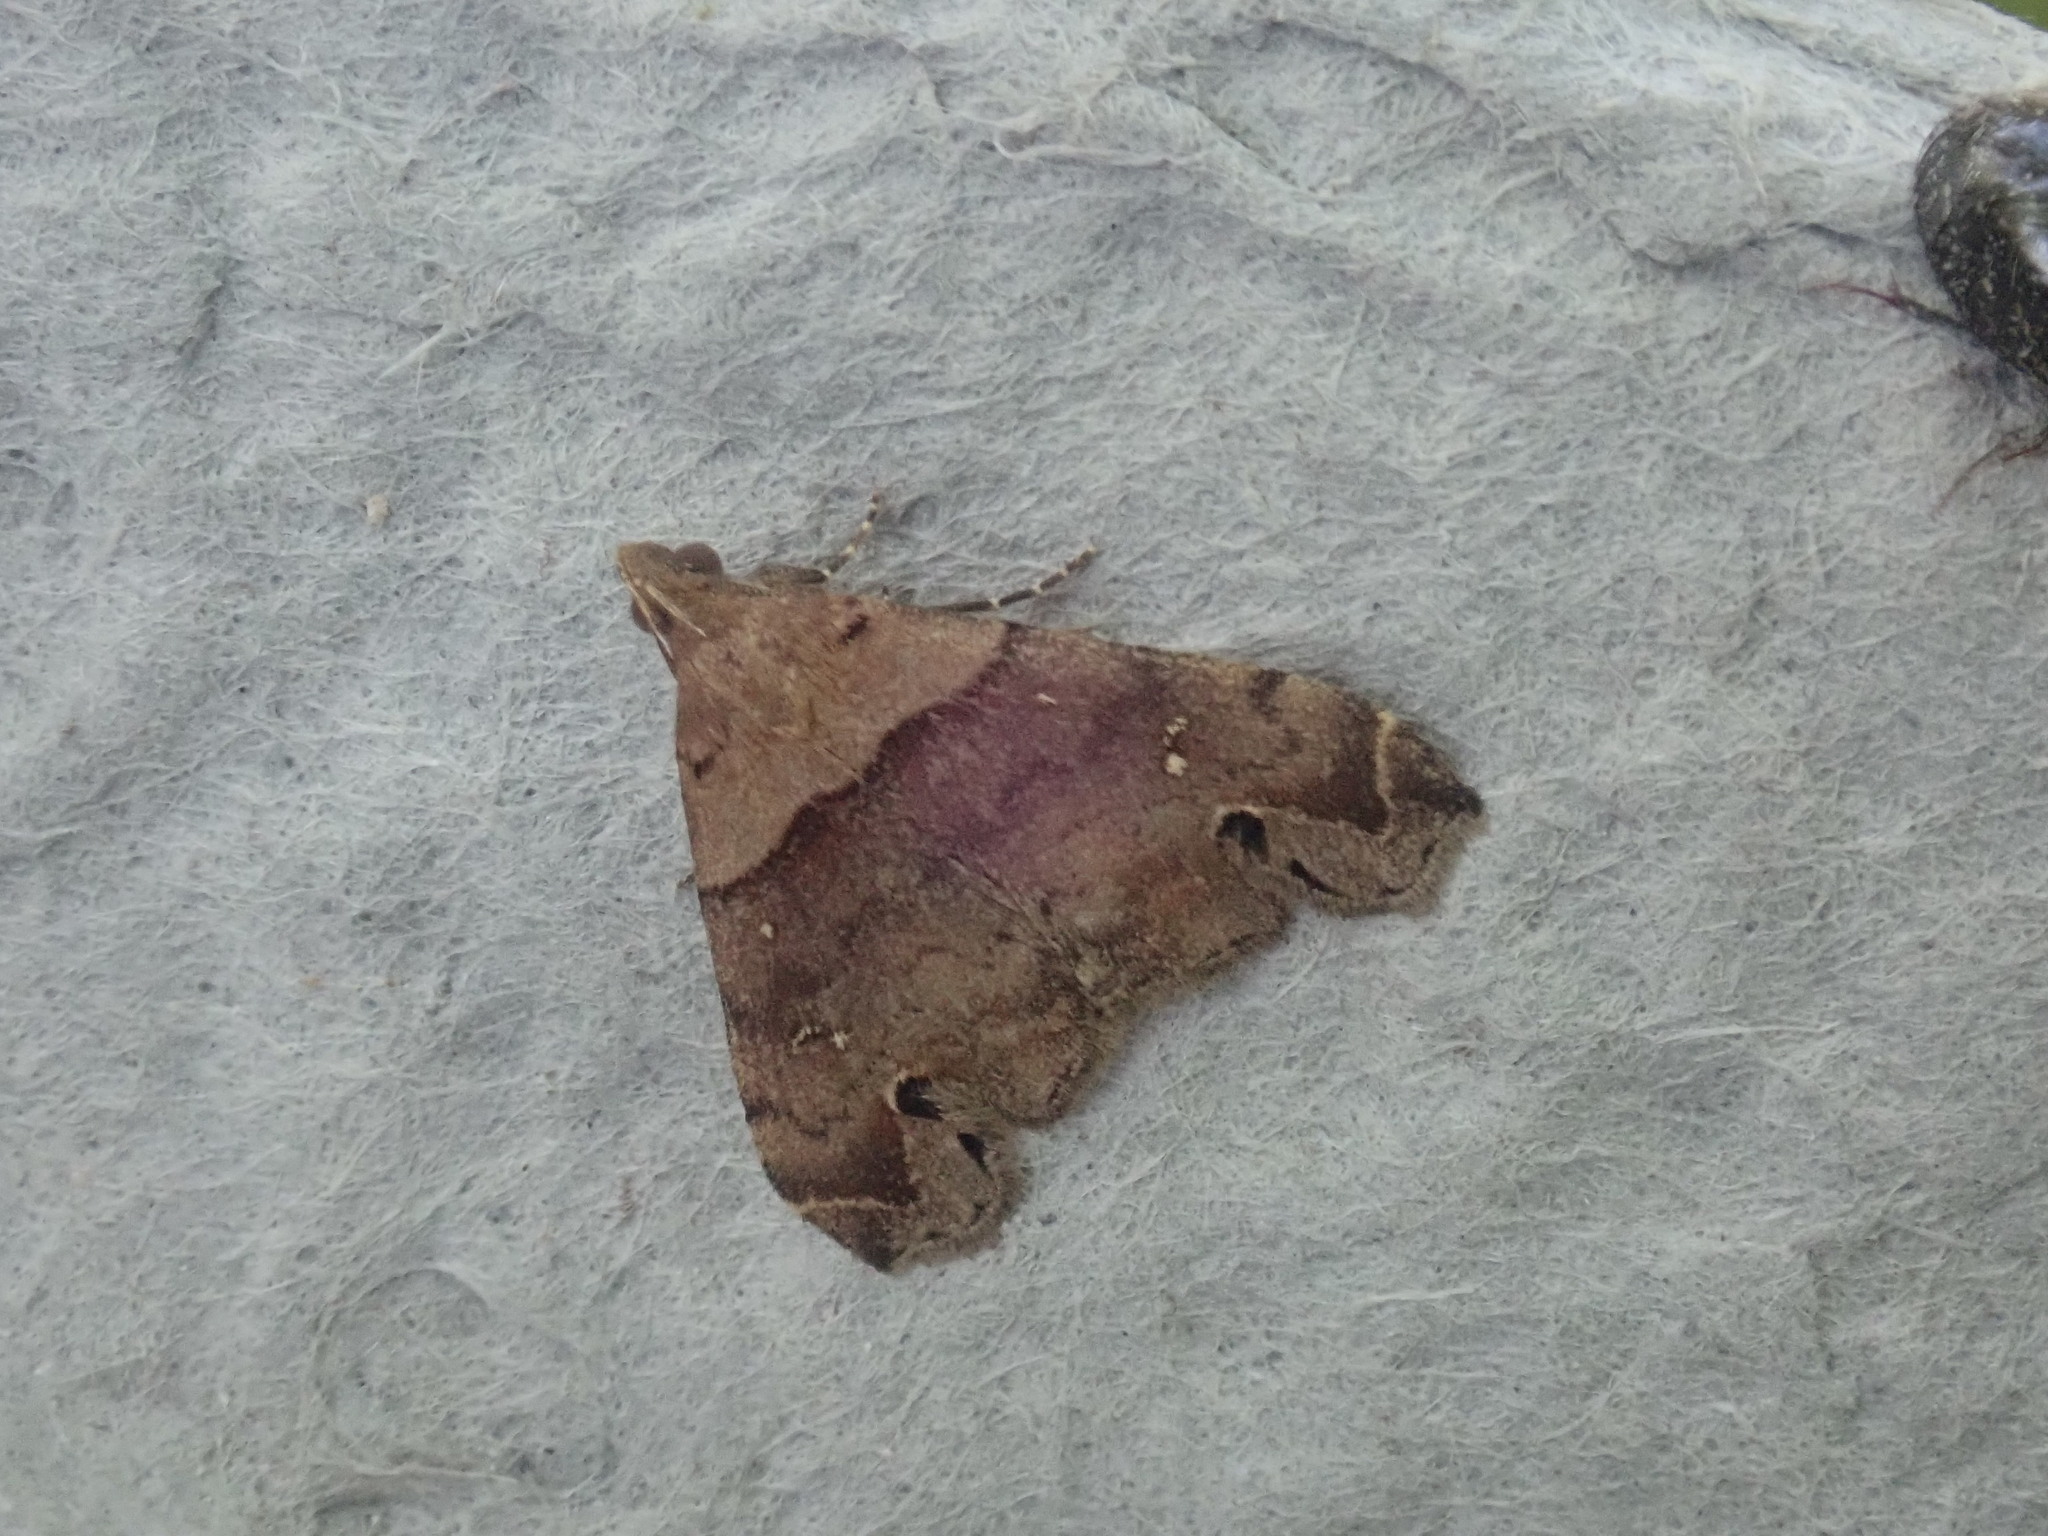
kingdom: Animalia
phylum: Arthropoda
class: Insecta
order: Lepidoptera
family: Erebidae
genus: Lascoria
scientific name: Lascoria ambigualis
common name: Ambiguous moth
